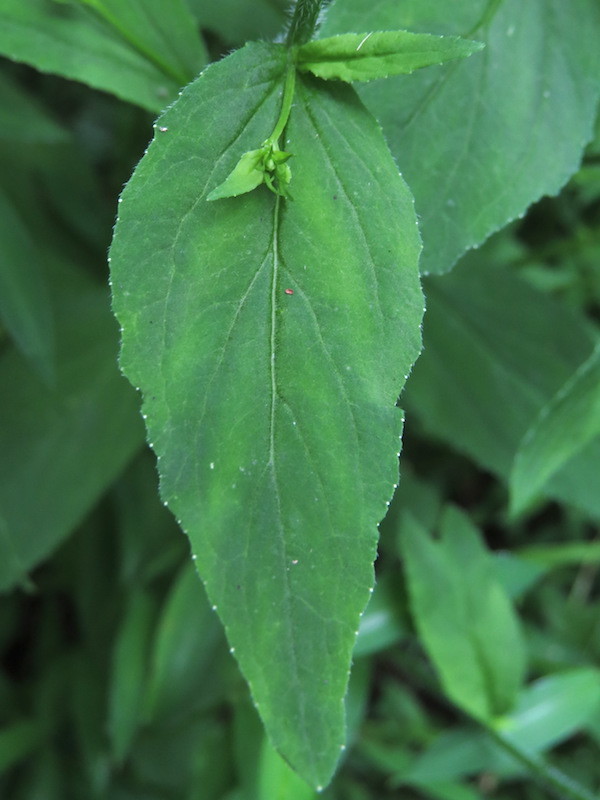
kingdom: Plantae
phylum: Tracheophyta
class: Magnoliopsida
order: Asterales
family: Campanulaceae
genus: Lobelia
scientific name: Lobelia inflata
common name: Indian tobacco
